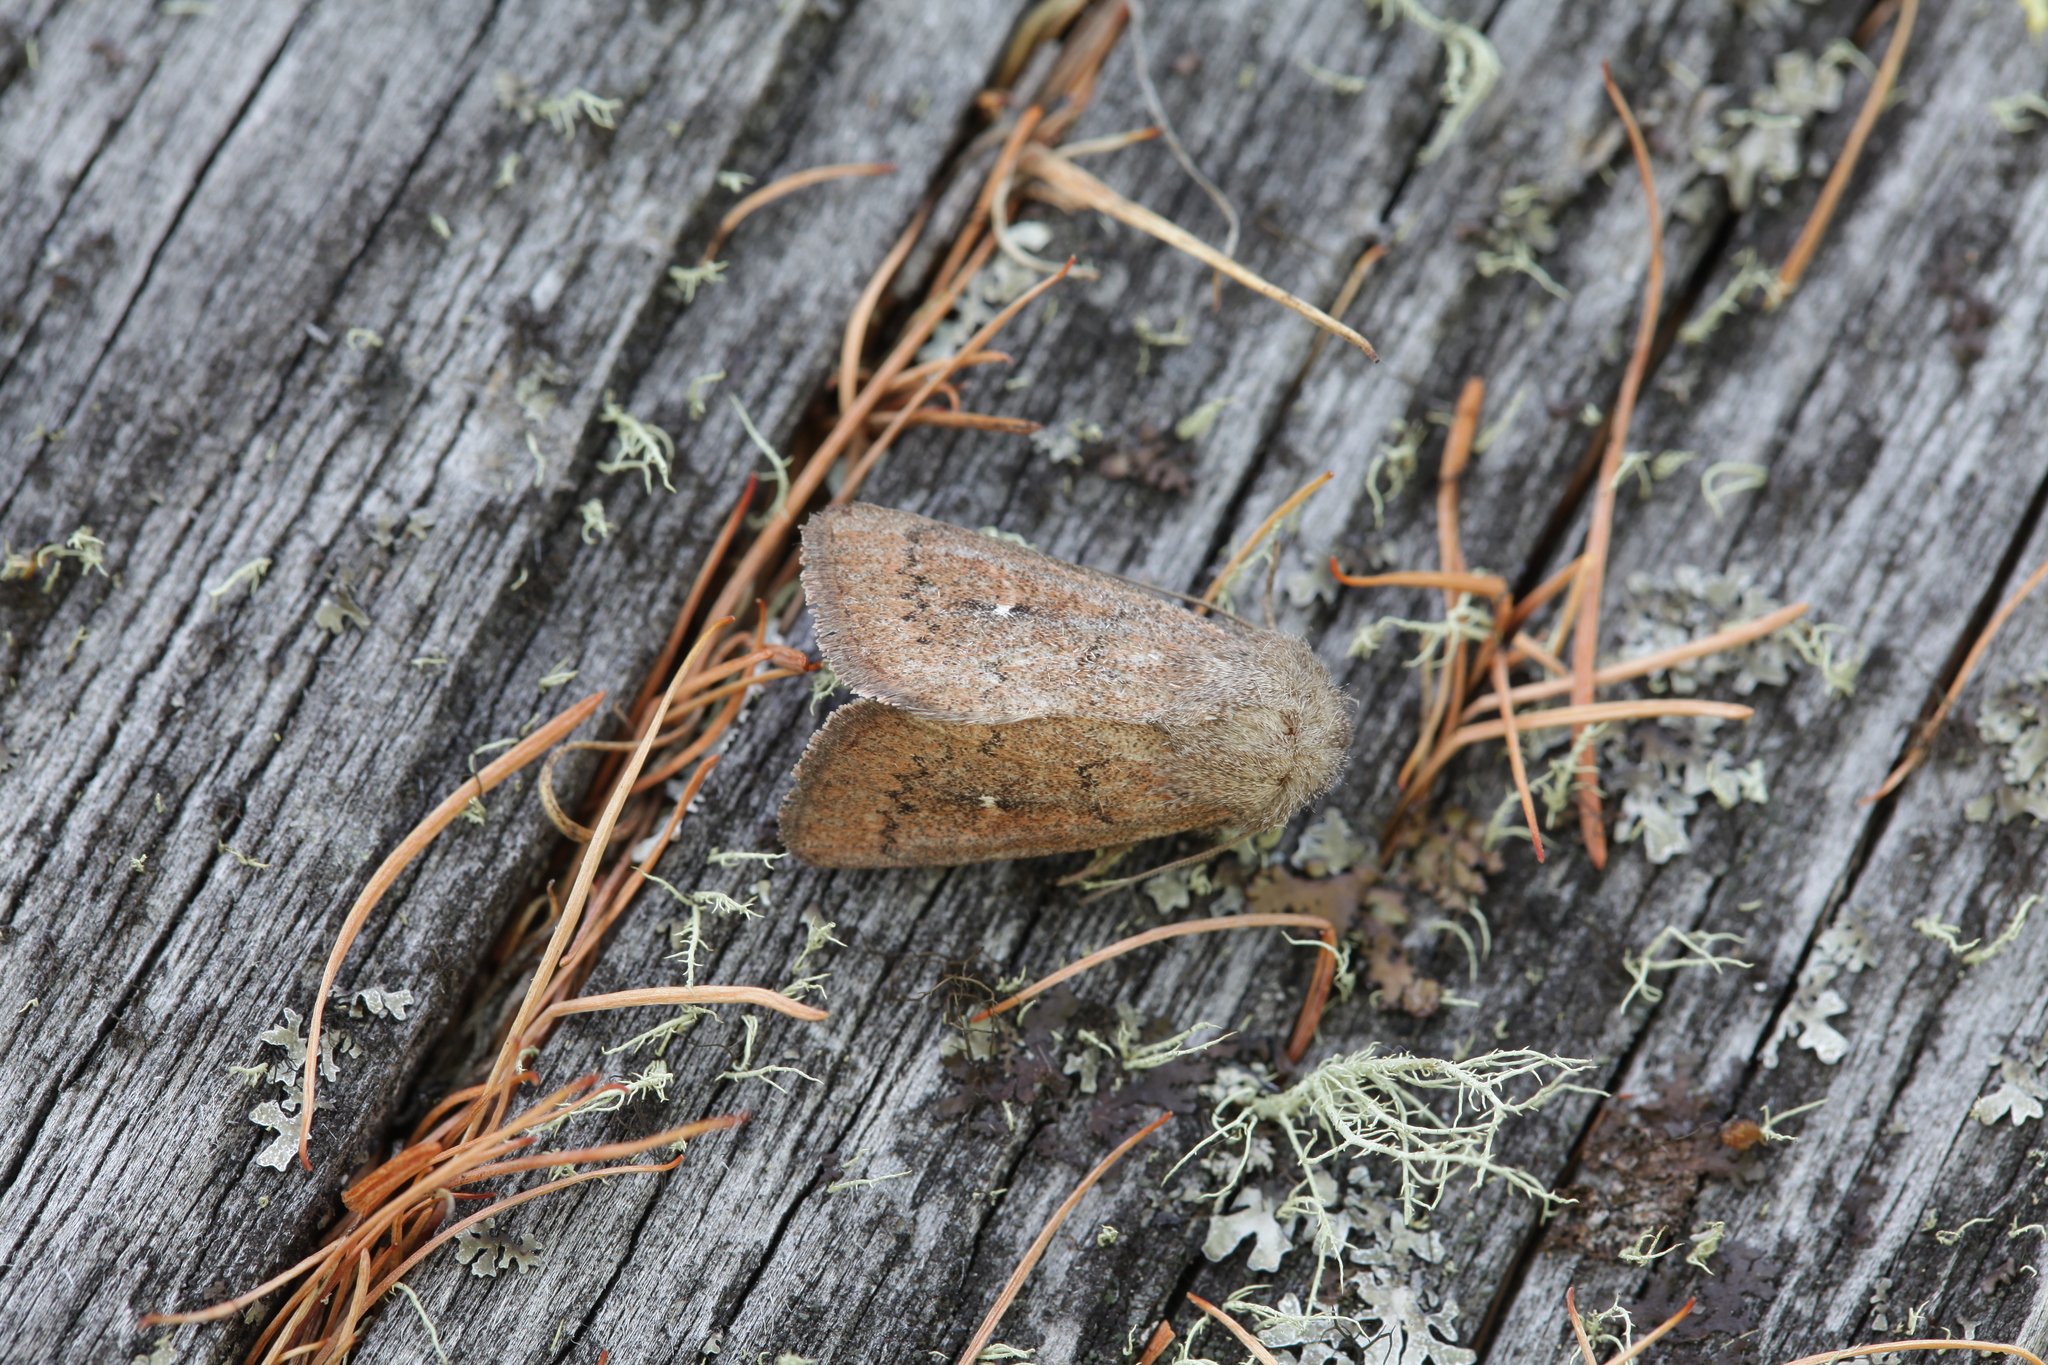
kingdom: Animalia
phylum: Arthropoda
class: Insecta
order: Lepidoptera
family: Noctuidae
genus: Mythimna
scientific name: Mythimna opaca
